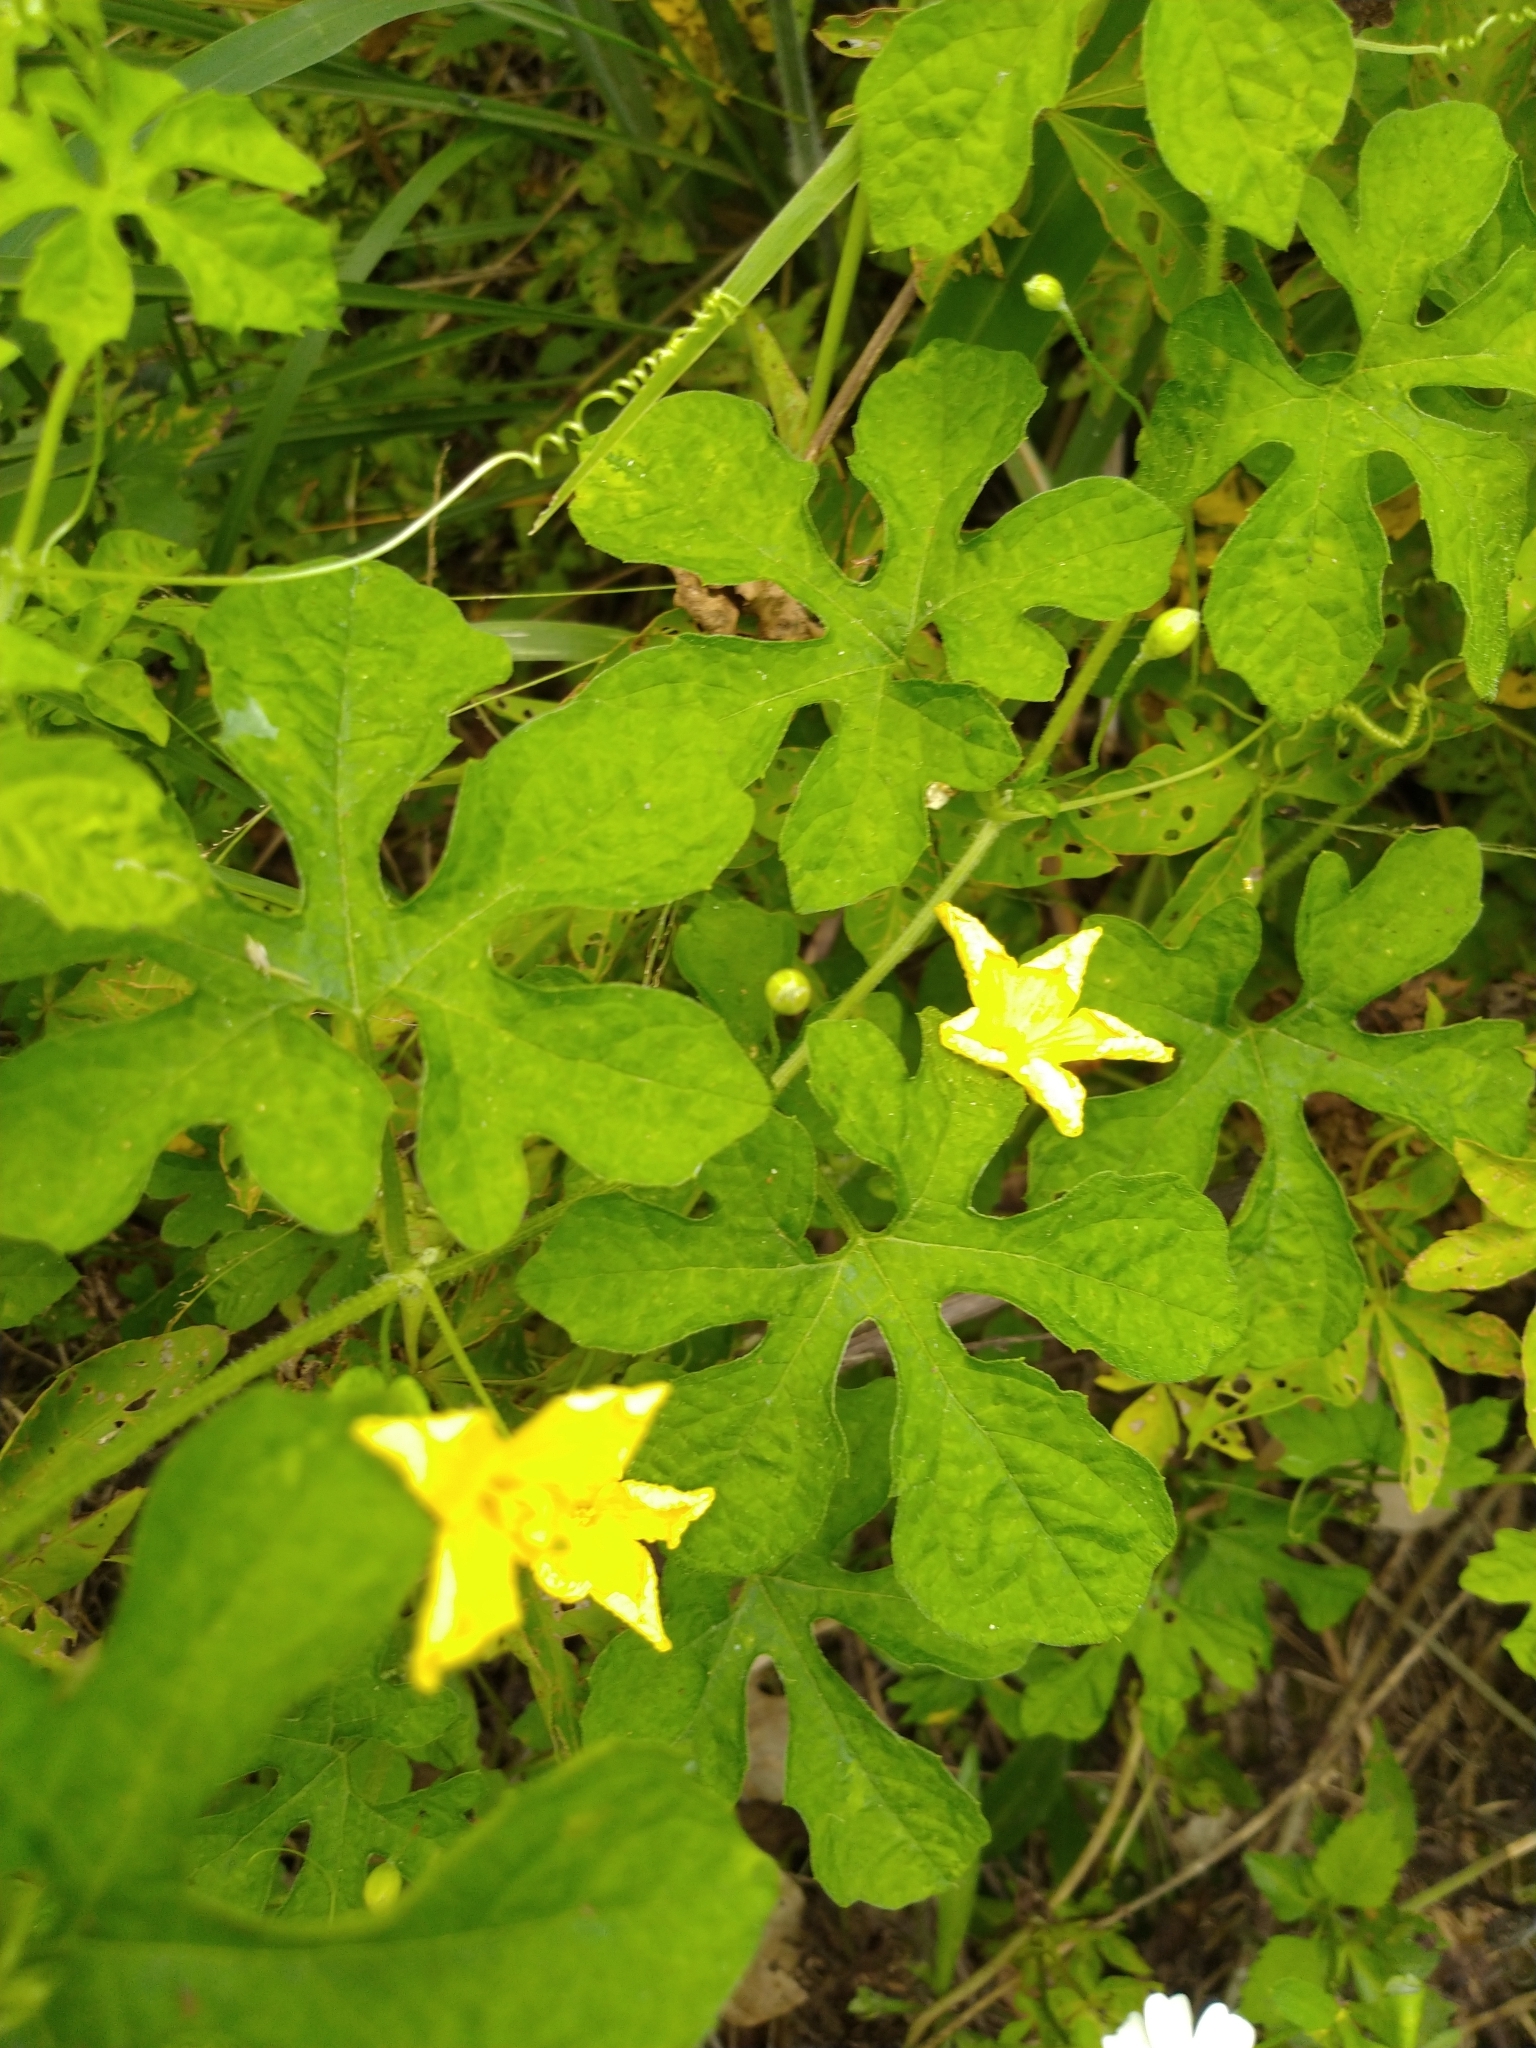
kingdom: Plantae
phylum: Tracheophyta
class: Magnoliopsida
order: Cucurbitales
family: Cucurbitaceae
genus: Momordica
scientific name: Momordica charantia
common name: Balsampear
